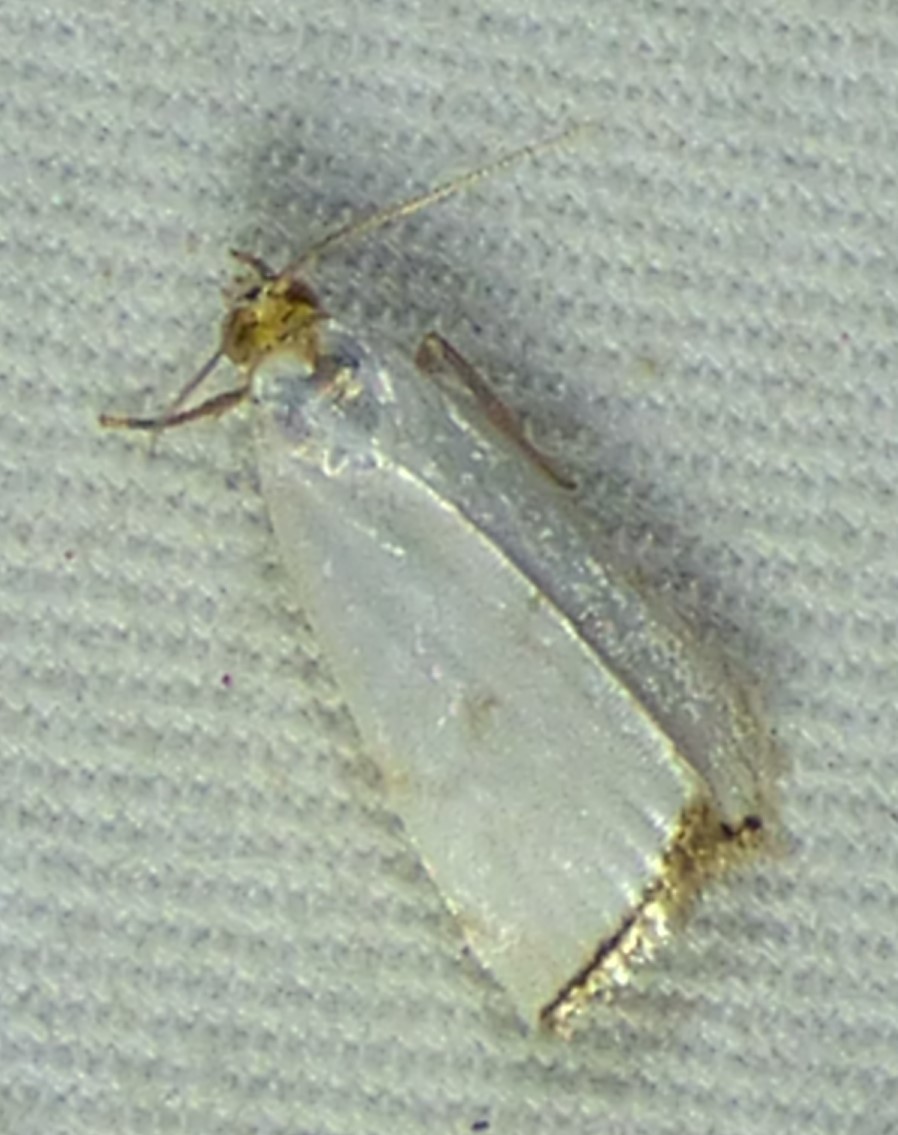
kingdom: Animalia
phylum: Arthropoda
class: Insecta
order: Lepidoptera
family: Crambidae
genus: Argyria
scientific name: Argyria nivalis
